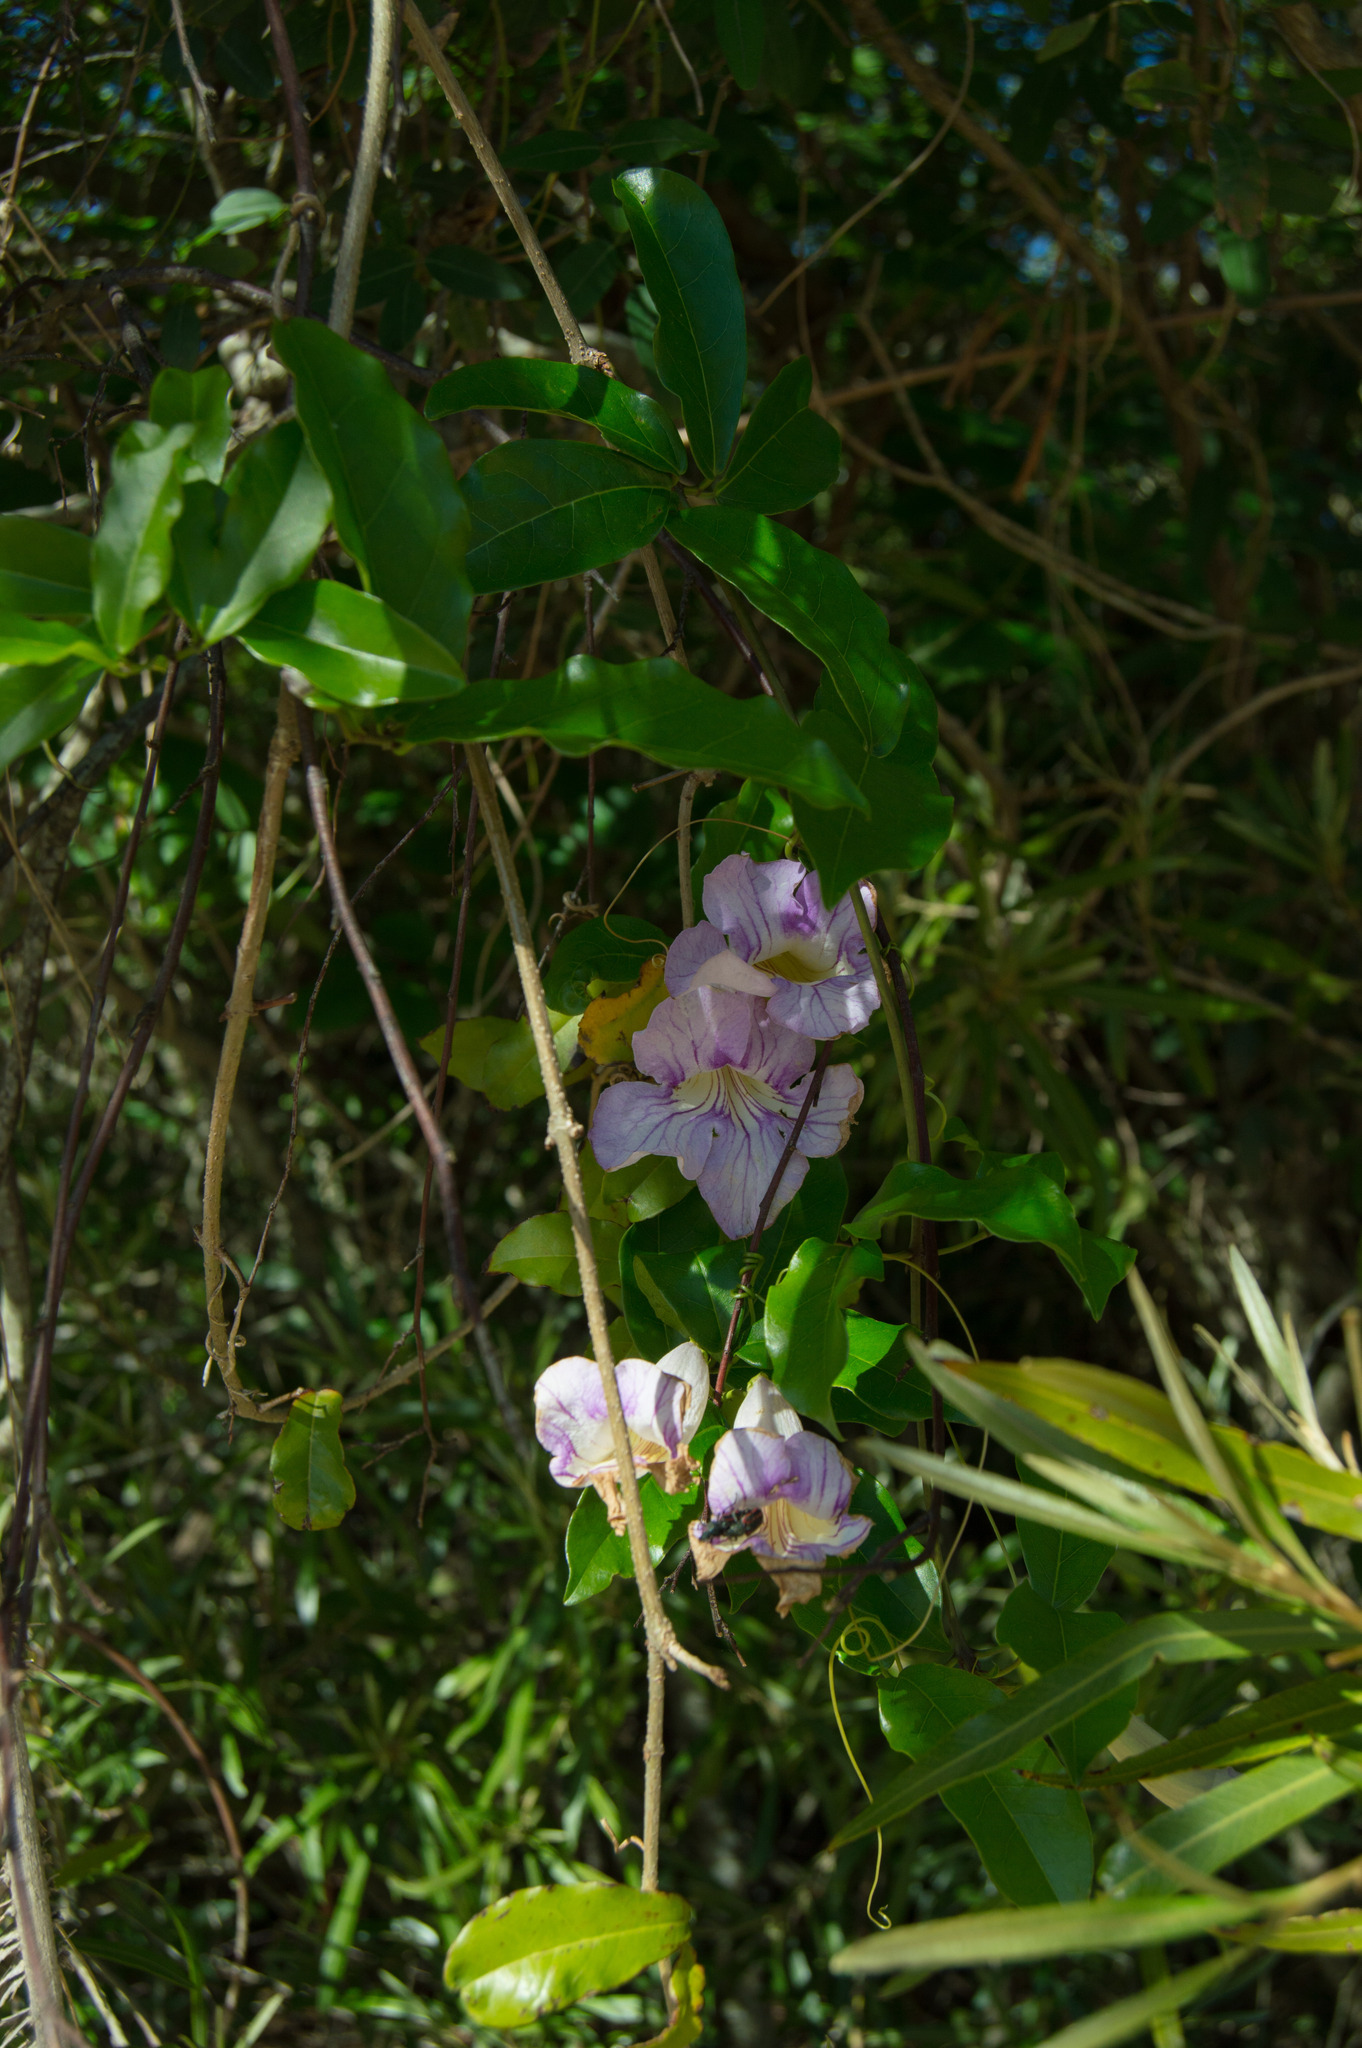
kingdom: Plantae
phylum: Tracheophyta
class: Magnoliopsida
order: Lamiales
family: Bignoniaceae
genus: Bignonia
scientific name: Bignonia callistegioides
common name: Argentine trumpetvine
